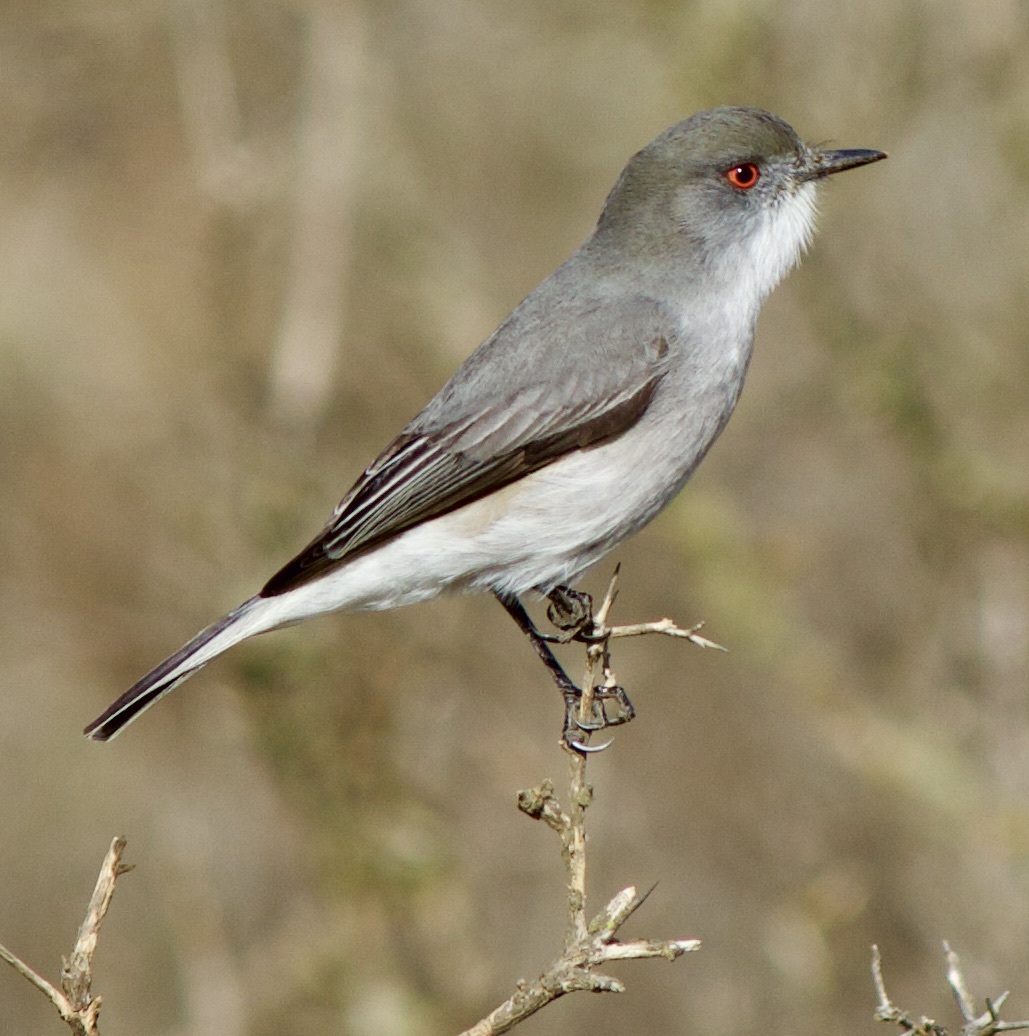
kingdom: Animalia
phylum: Chordata
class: Aves
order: Passeriformes
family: Tyrannidae
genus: Xolmis
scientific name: Xolmis pyrope
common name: Fire-eyed diucon
